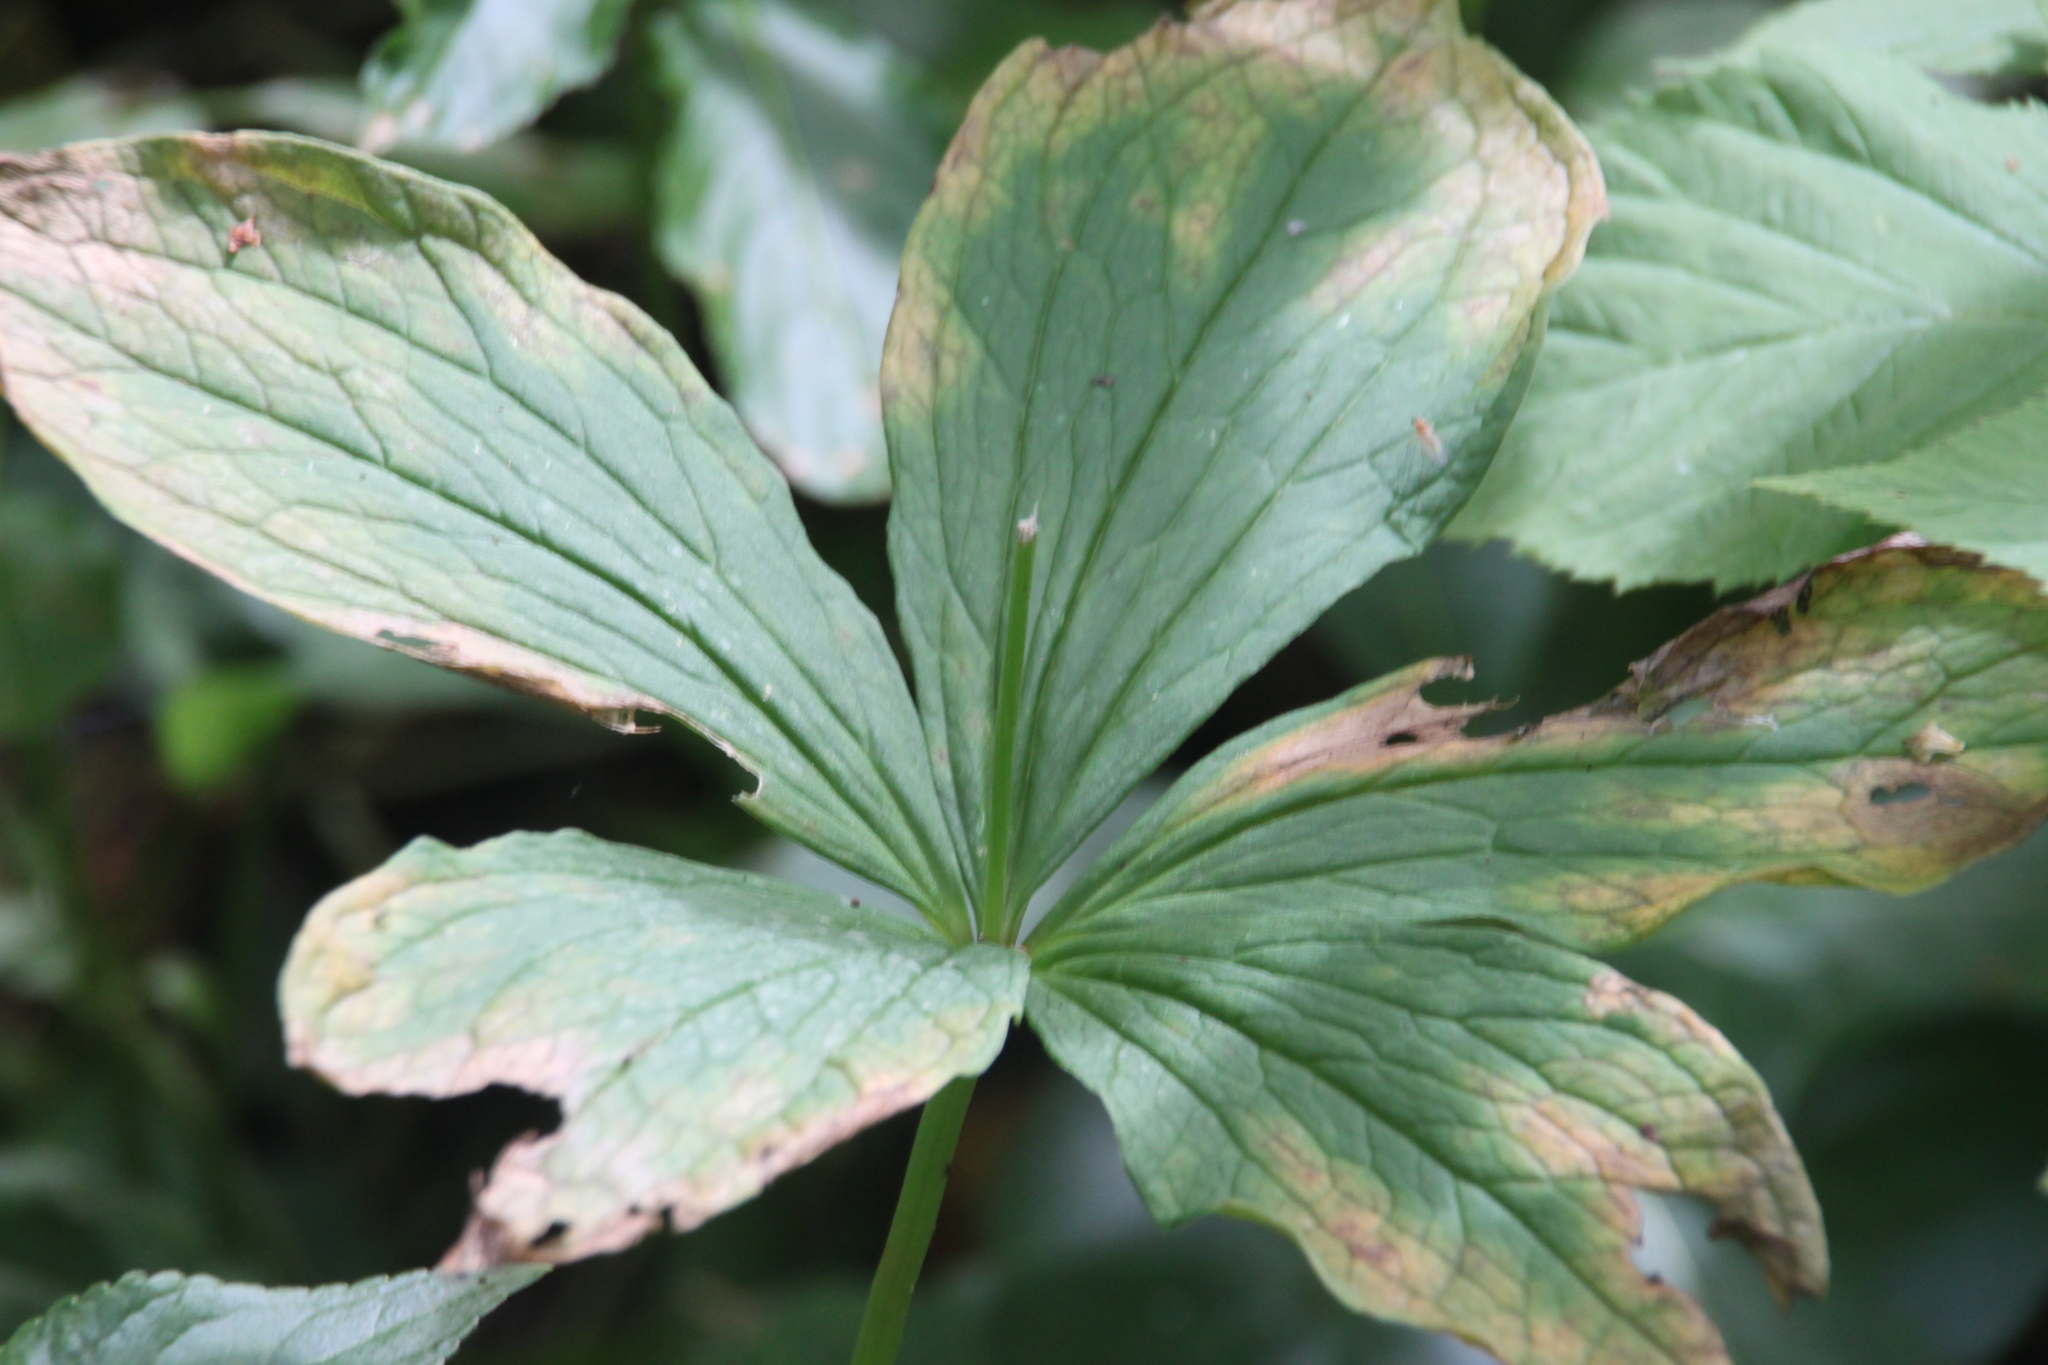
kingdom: Plantae
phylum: Tracheophyta
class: Liliopsida
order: Liliales
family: Melanthiaceae
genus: Paris
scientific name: Paris quadrifolia
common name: Herb-paris
